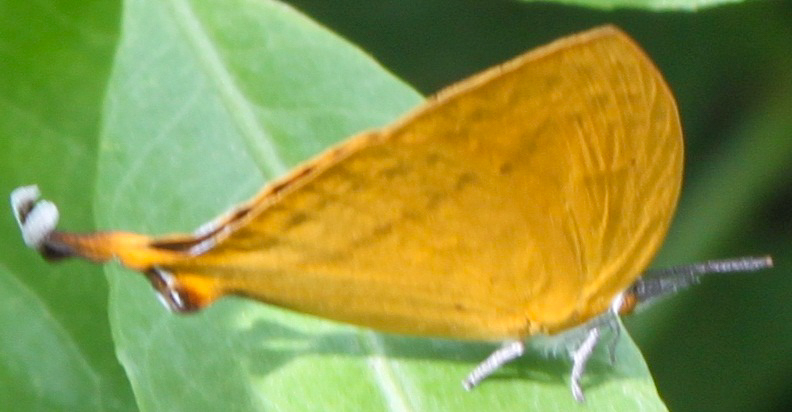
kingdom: Animalia
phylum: Arthropoda
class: Insecta
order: Lepidoptera
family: Lycaenidae
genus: Loxura
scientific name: Loxura atymnus
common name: Common yamfly
